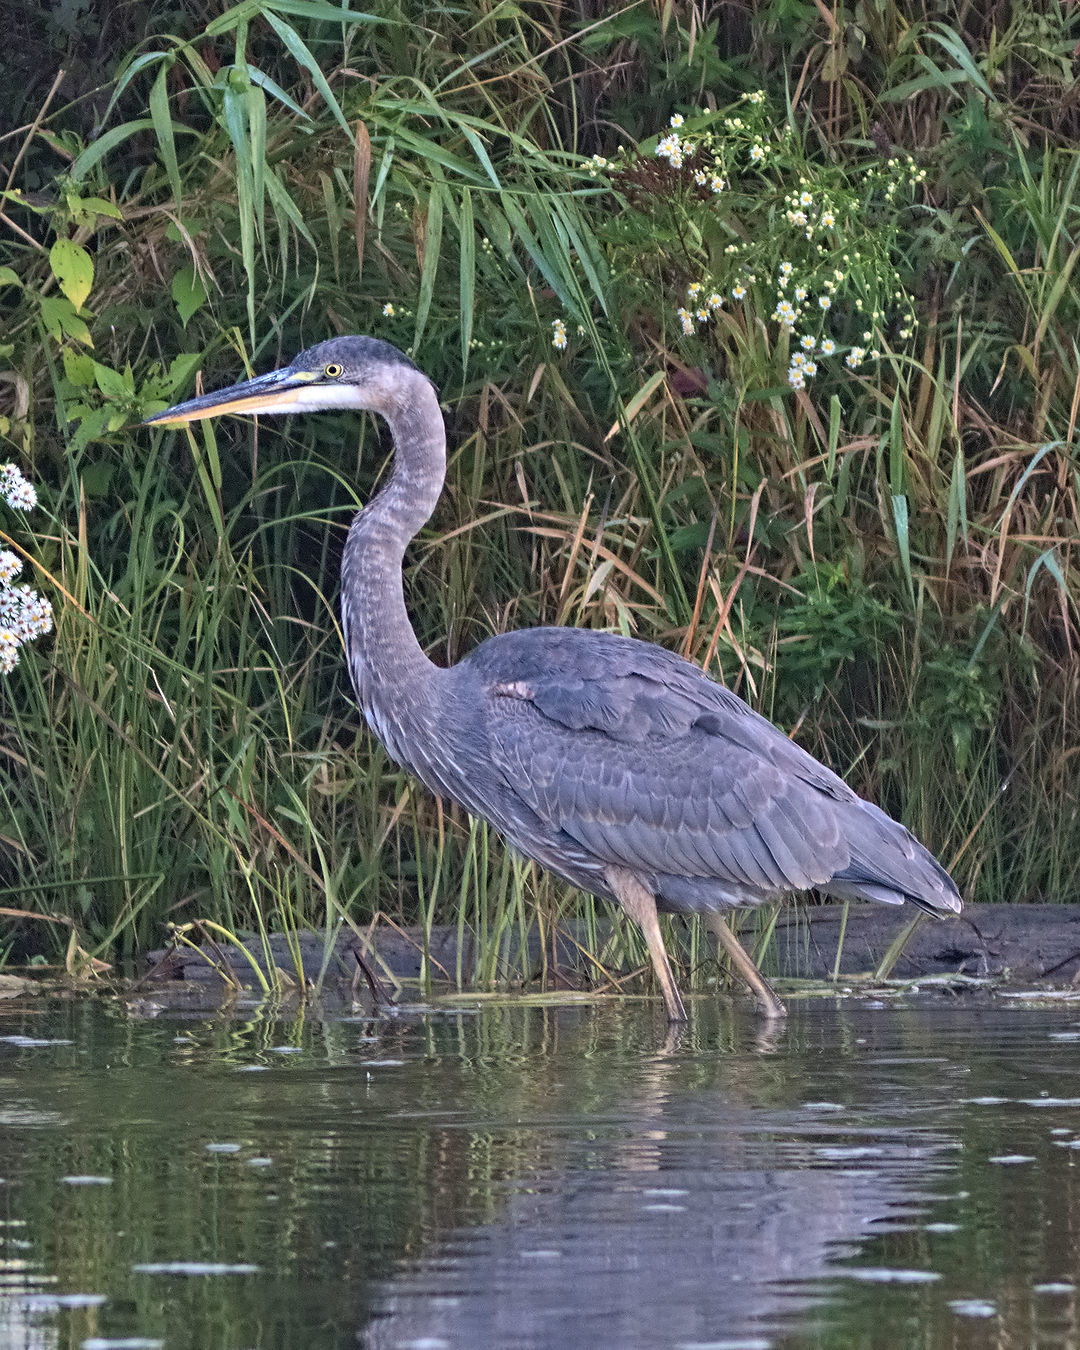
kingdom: Animalia
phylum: Chordata
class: Aves
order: Pelecaniformes
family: Ardeidae
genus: Ardea
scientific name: Ardea herodias
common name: Great blue heron
